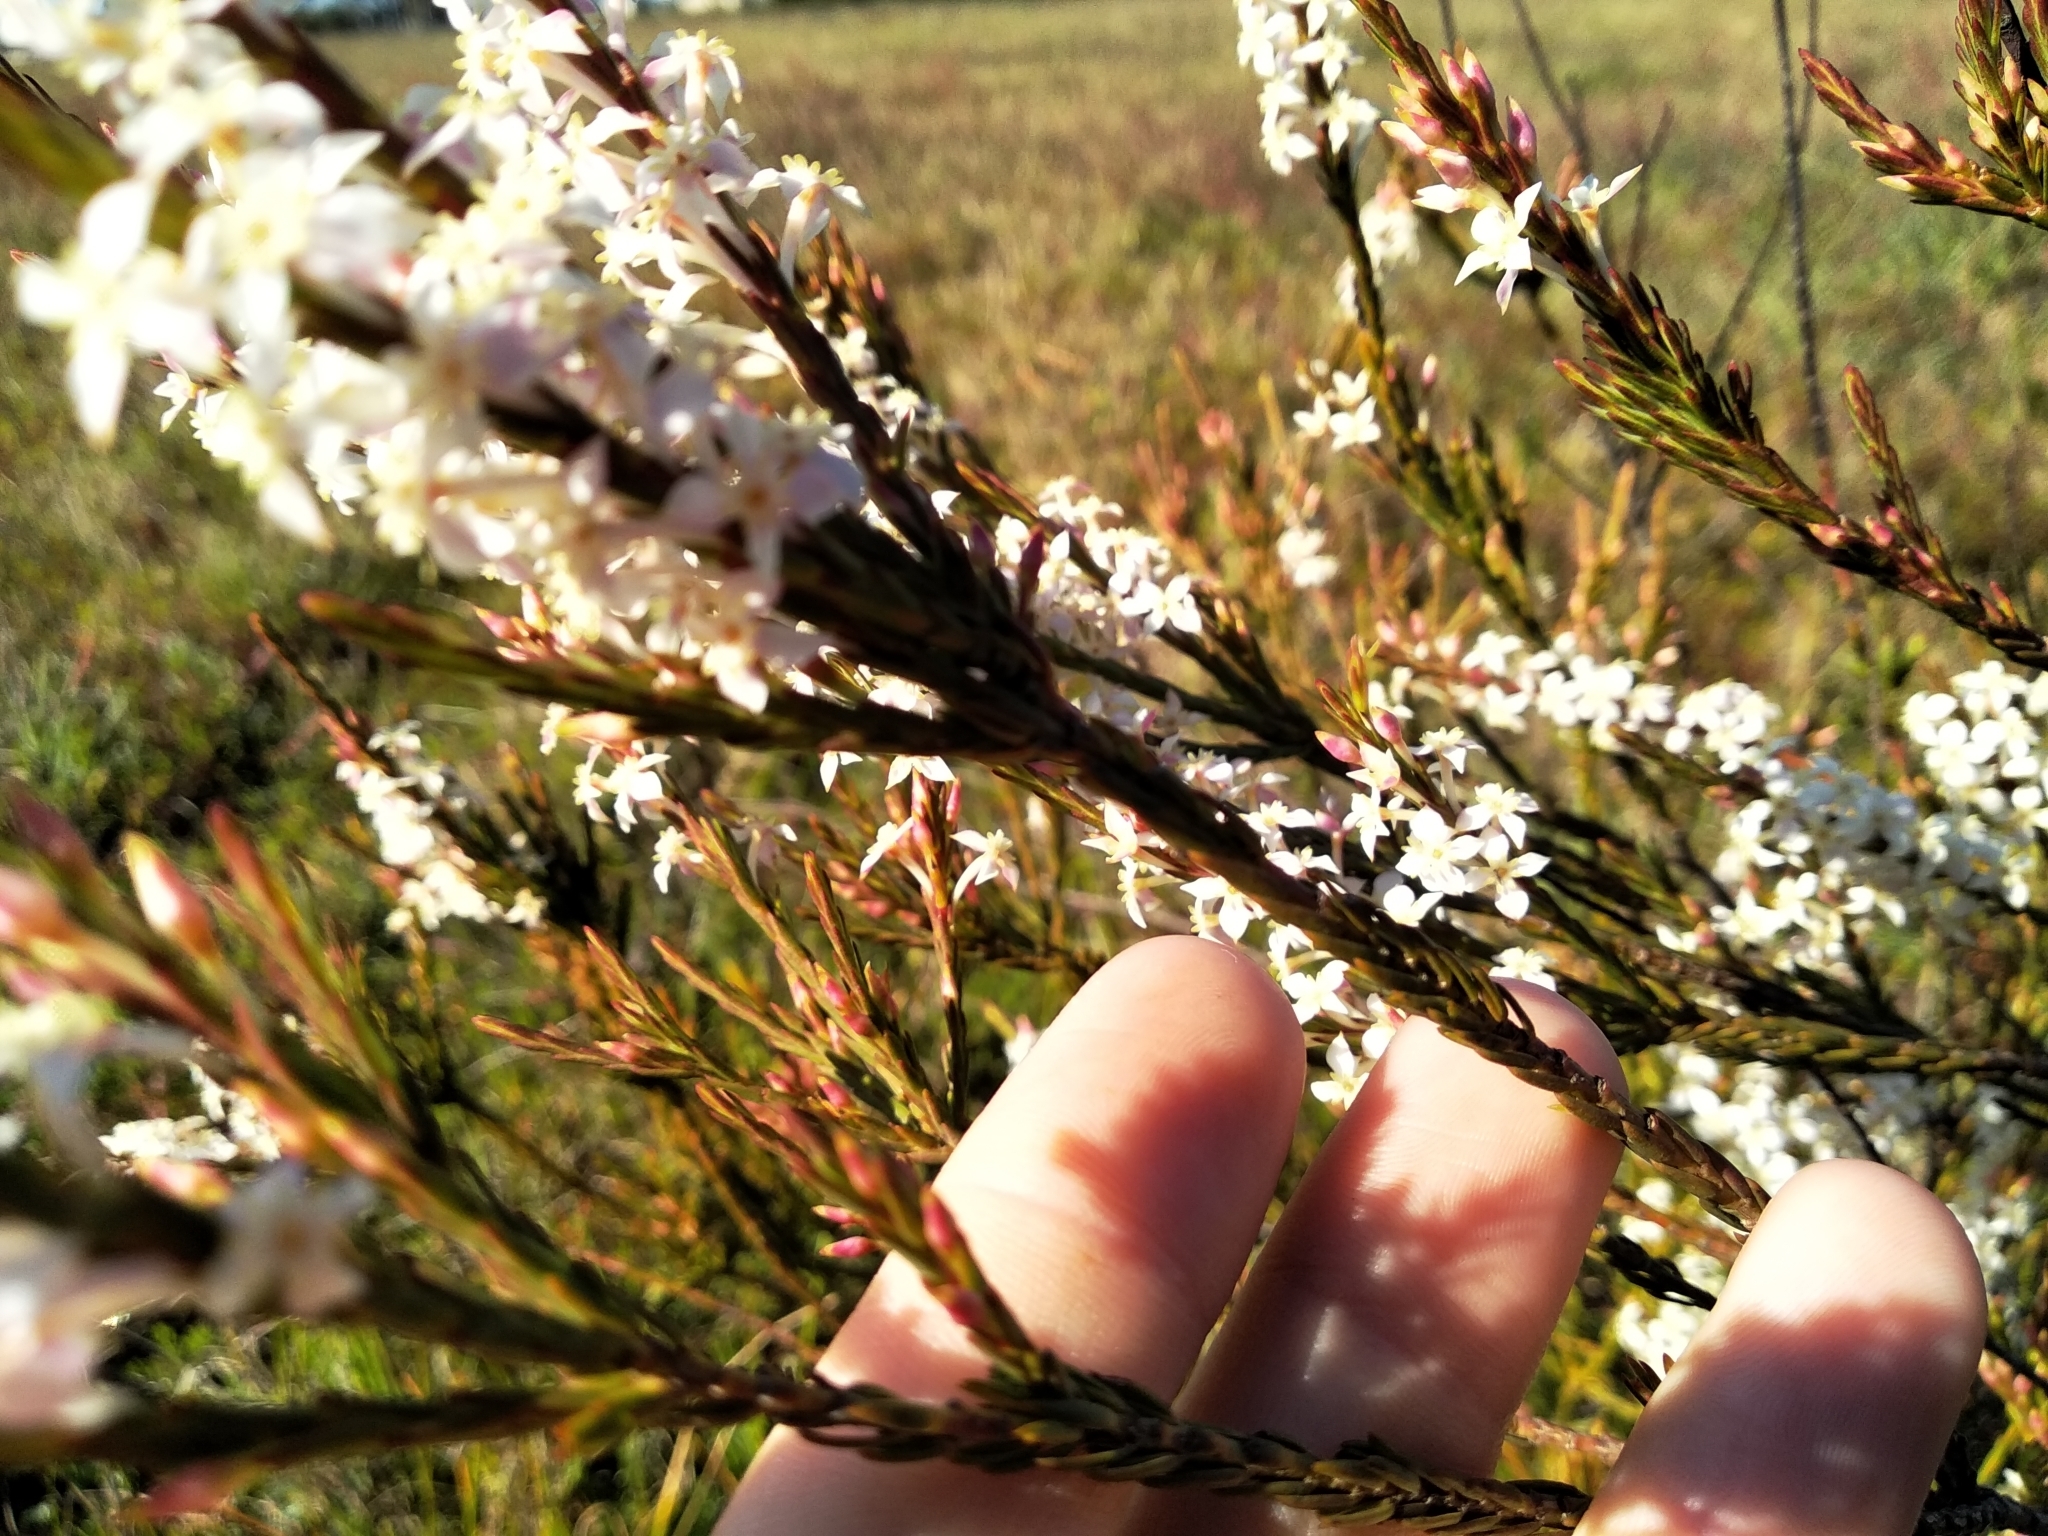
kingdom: Plantae
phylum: Tracheophyta
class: Magnoliopsida
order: Malvales
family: Thymelaeaceae
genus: Struthiola
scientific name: Struthiola dodecandra
